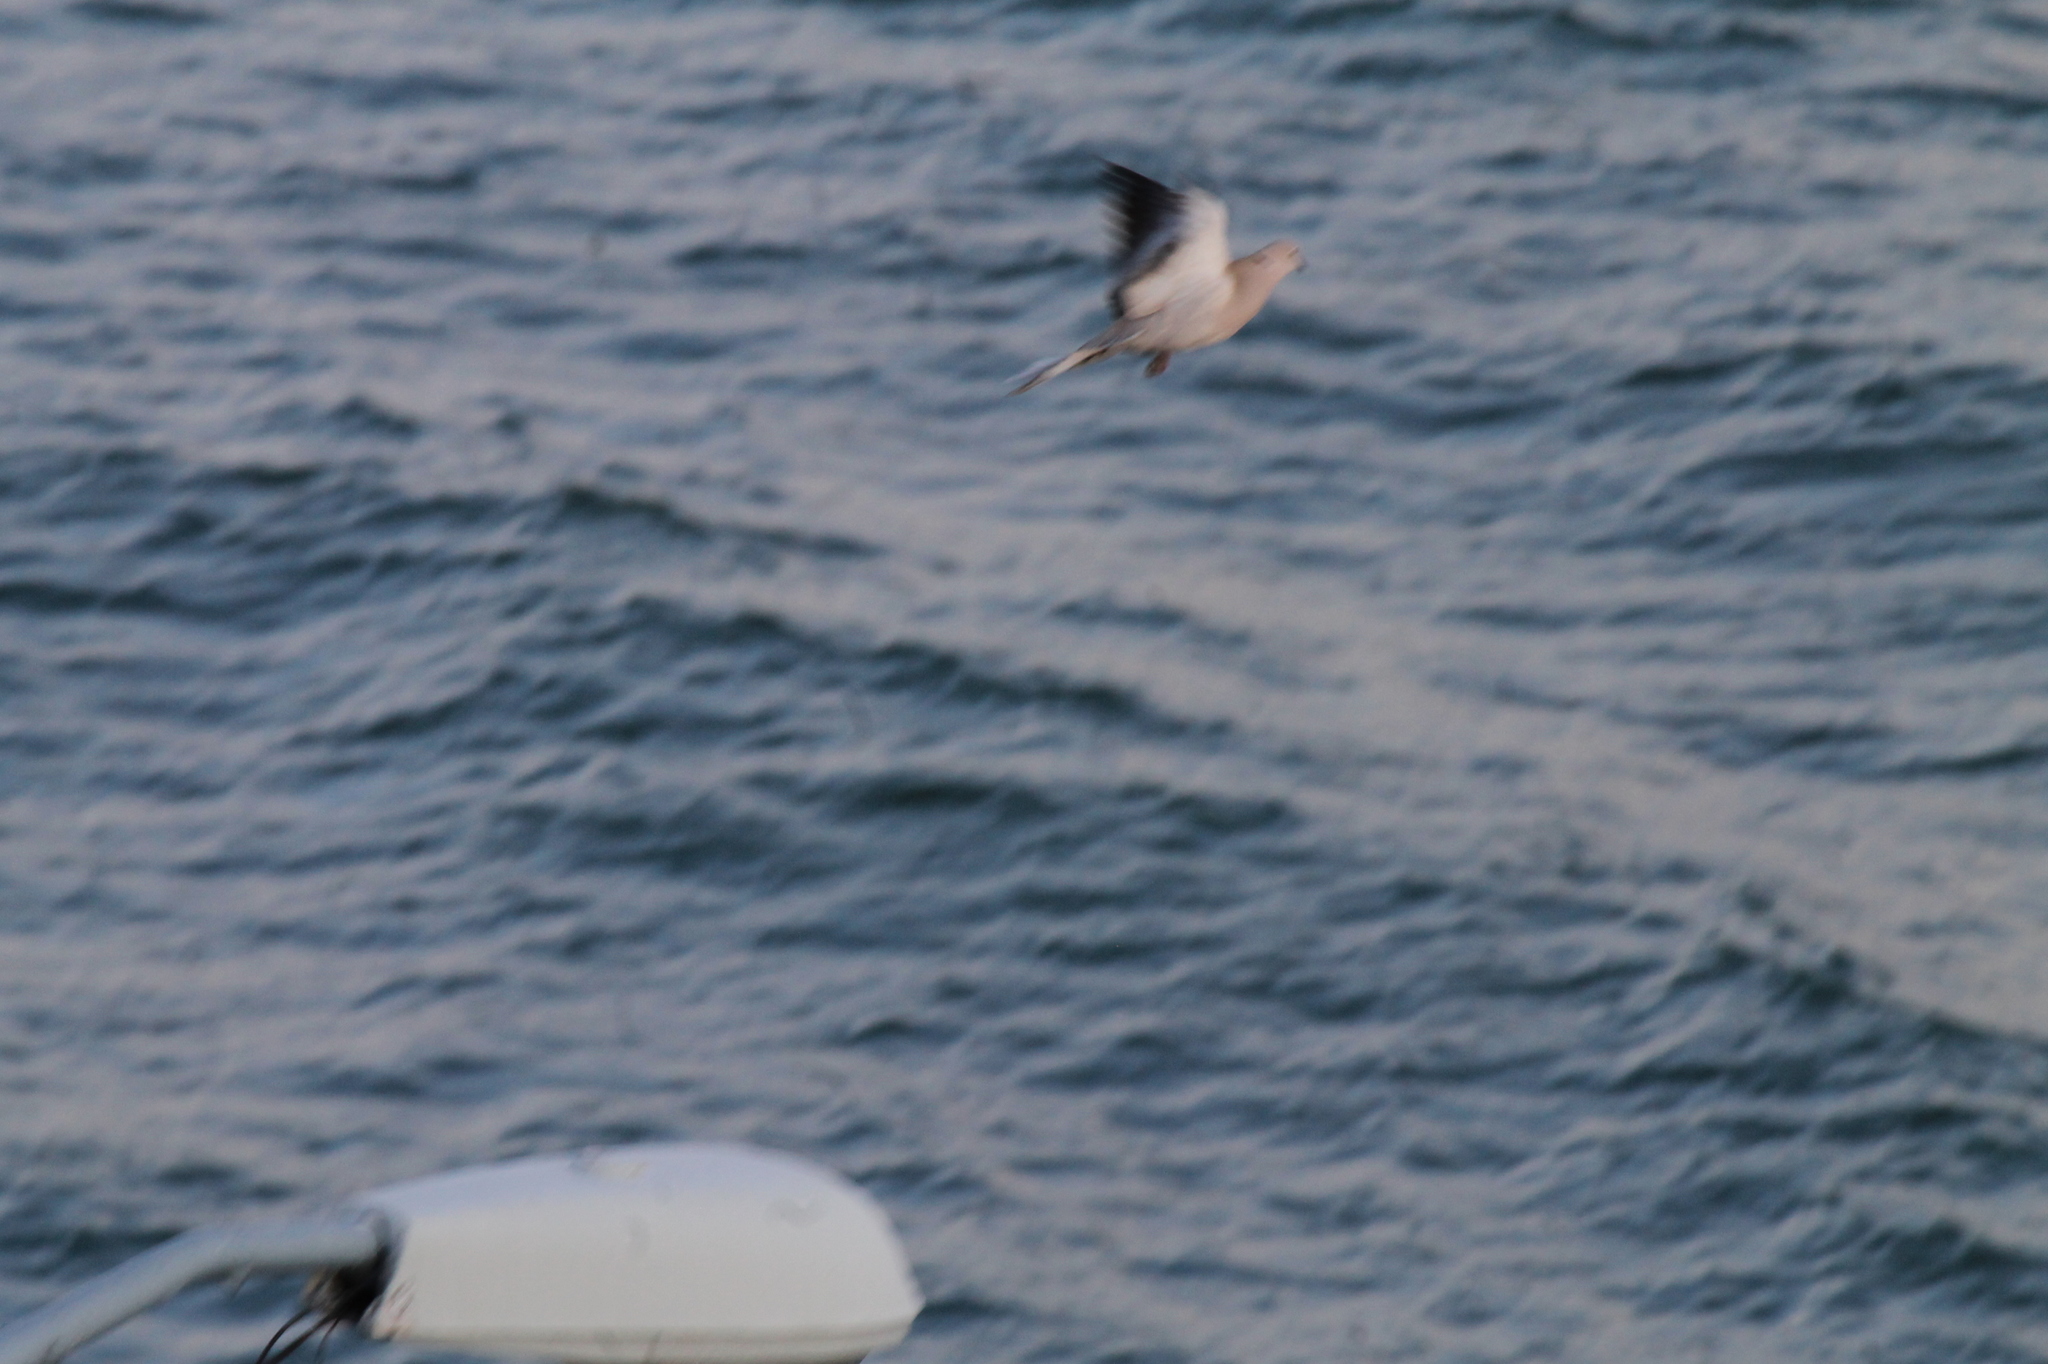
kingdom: Animalia
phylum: Chordata
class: Aves
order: Columbiformes
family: Columbidae
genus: Streptopelia
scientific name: Streptopelia decaocto
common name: Eurasian collared dove
